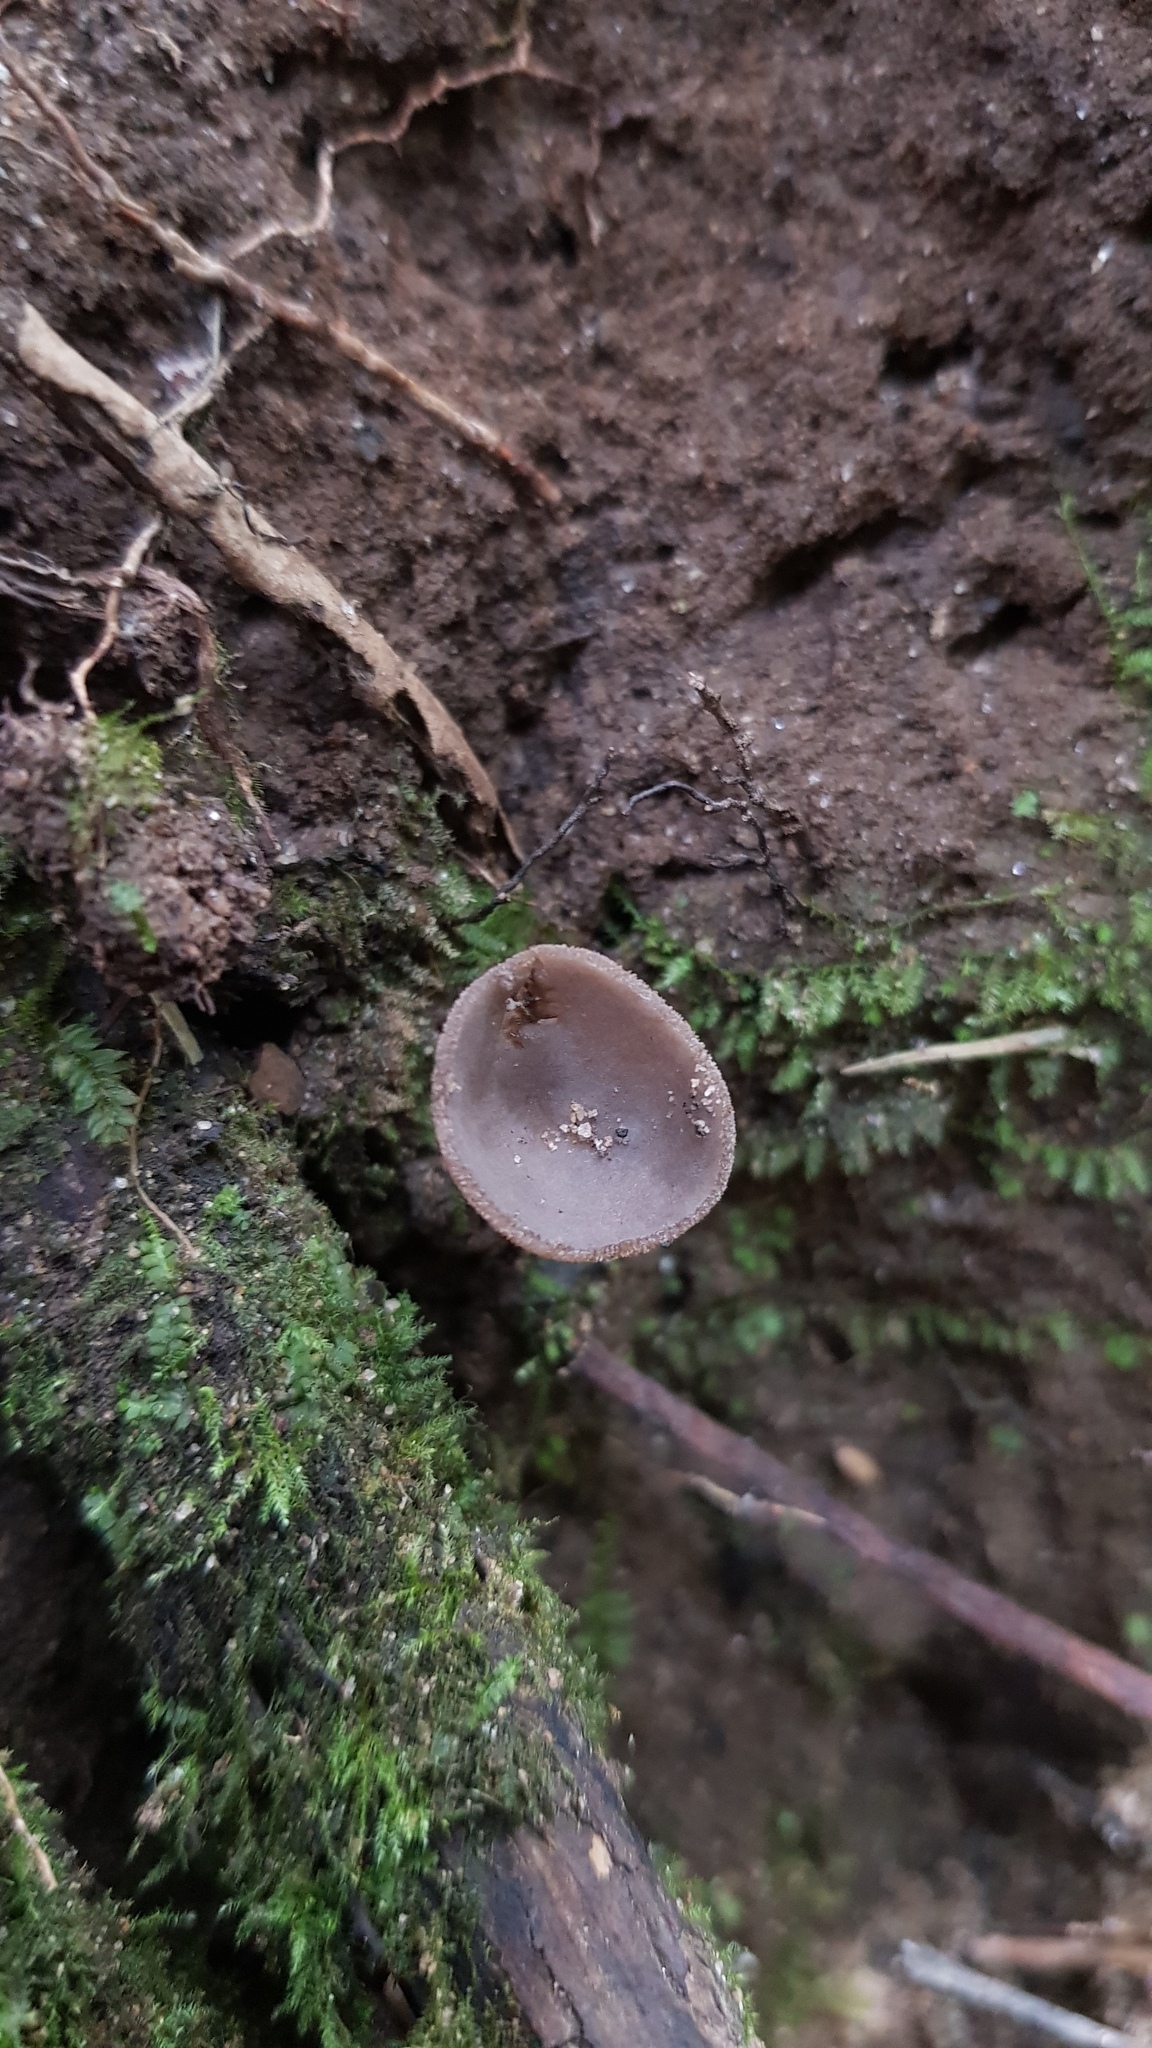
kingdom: Fungi
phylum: Ascomycota
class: Pezizomycetes
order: Pezizales
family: Helvellaceae
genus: Helvella
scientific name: Helvella fibrosa
